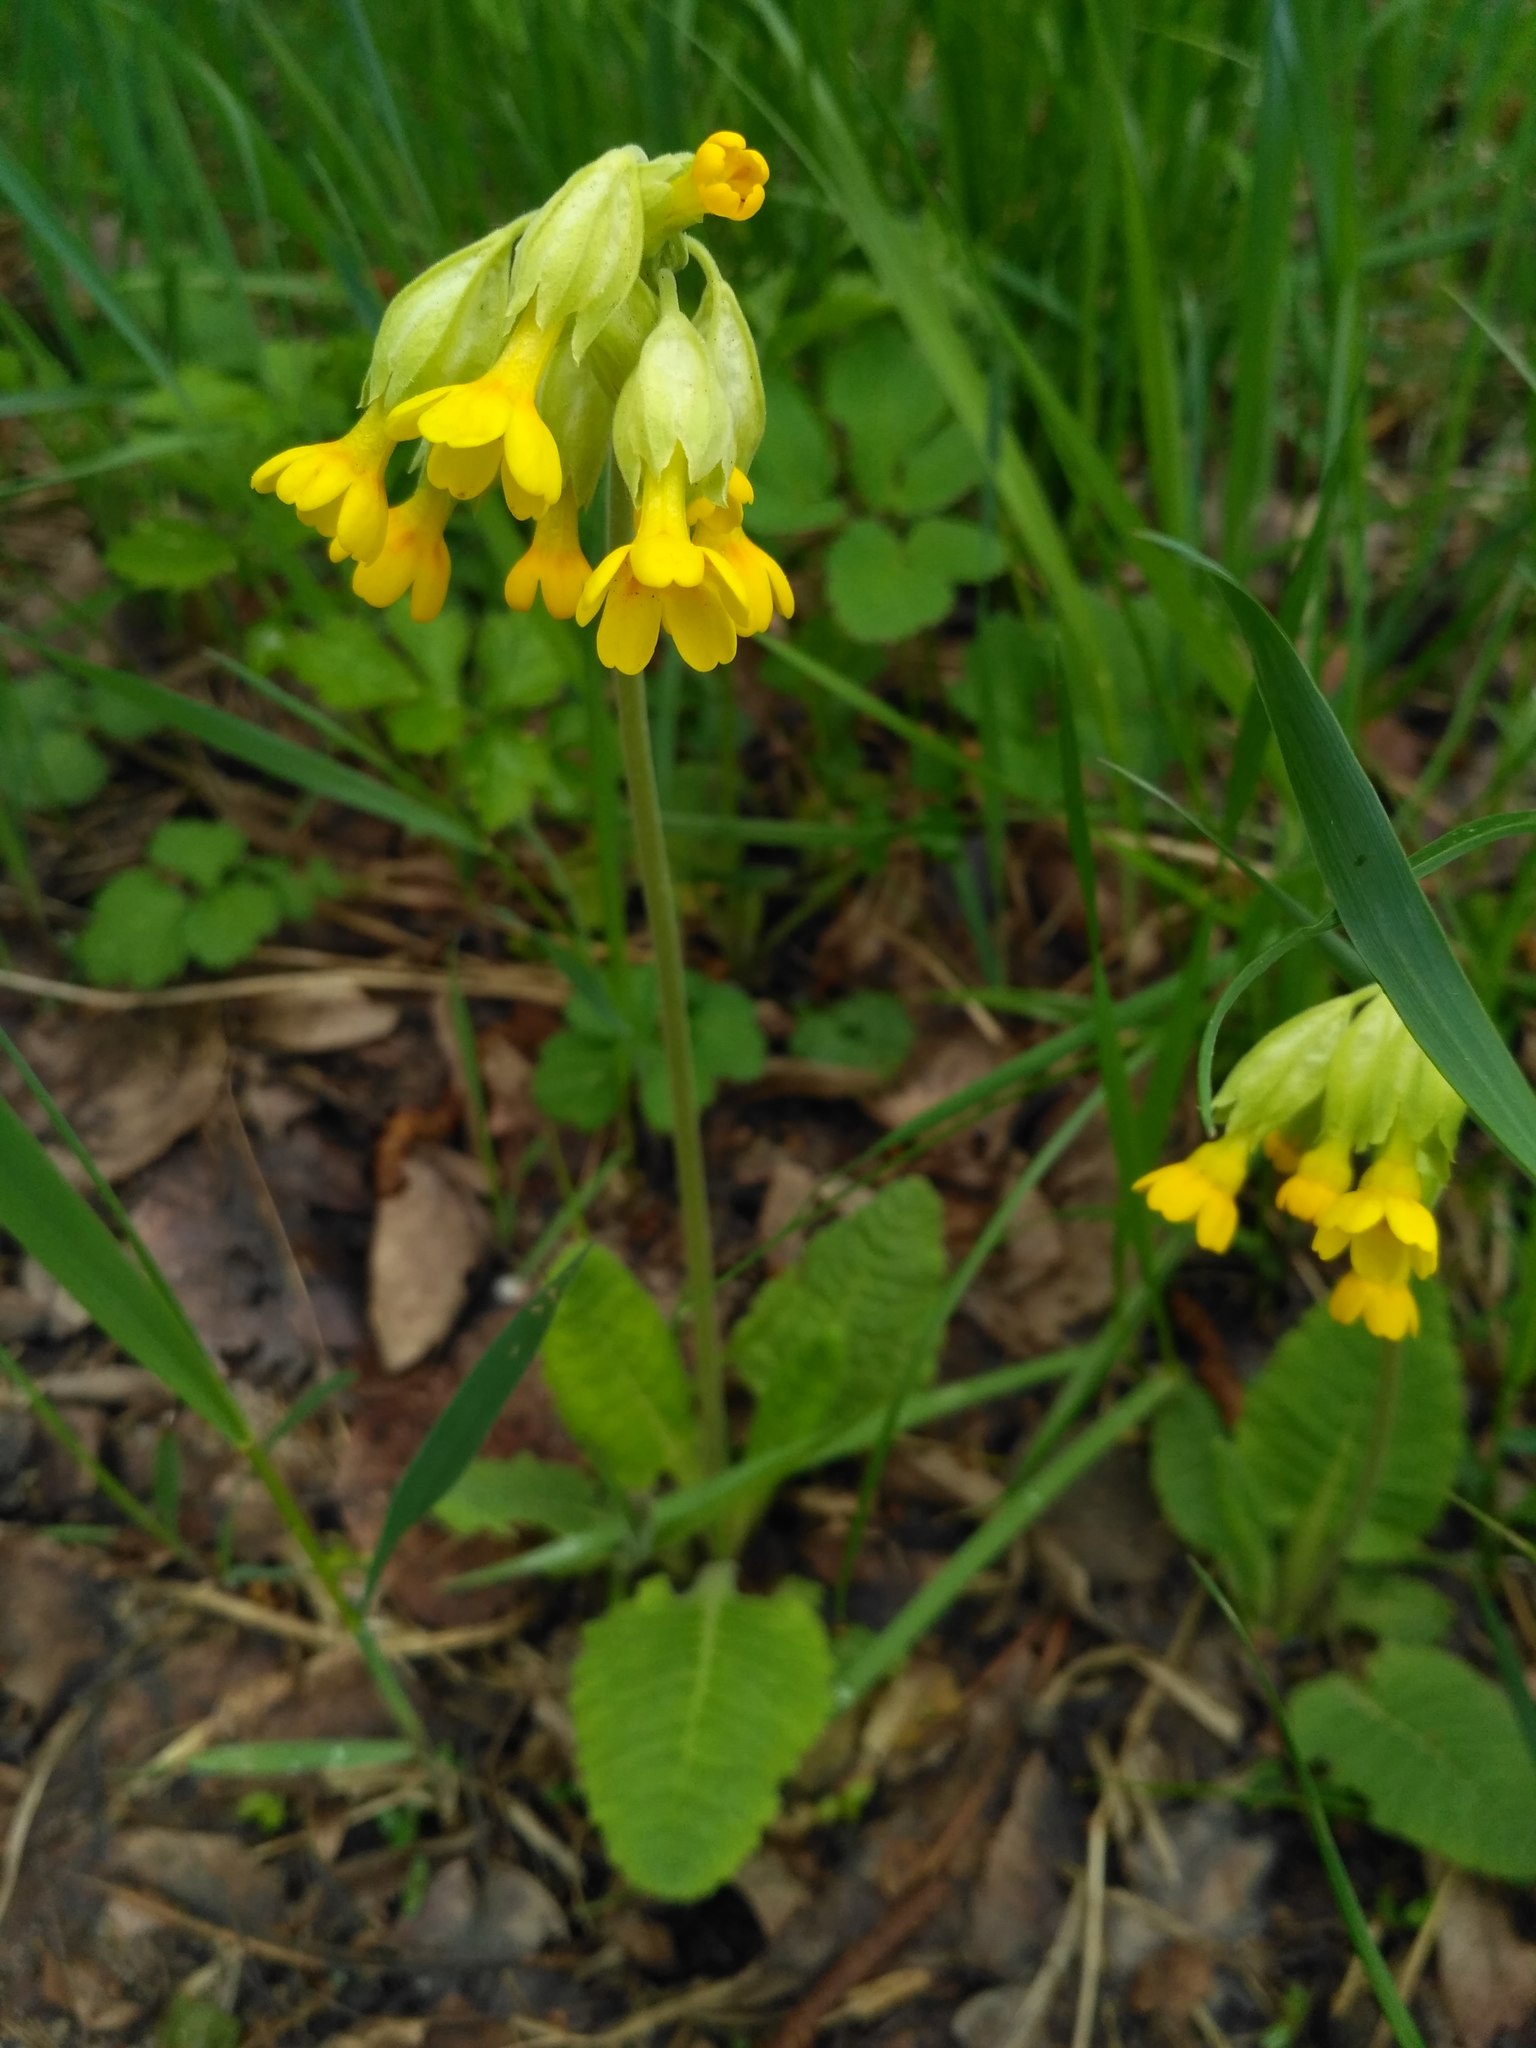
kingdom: Plantae
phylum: Tracheophyta
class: Magnoliopsida
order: Ericales
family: Primulaceae
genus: Primula
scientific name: Primula veris
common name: Cowslip
